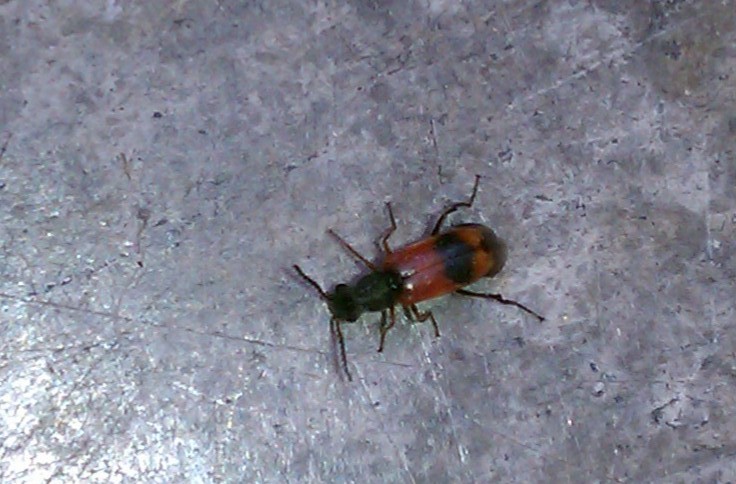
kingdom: Animalia
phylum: Arthropoda
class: Insecta
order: Coleoptera
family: Melyridae
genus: Anthocomus
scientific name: Anthocomus equestris
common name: Black-banded soft-winged flower beetle
